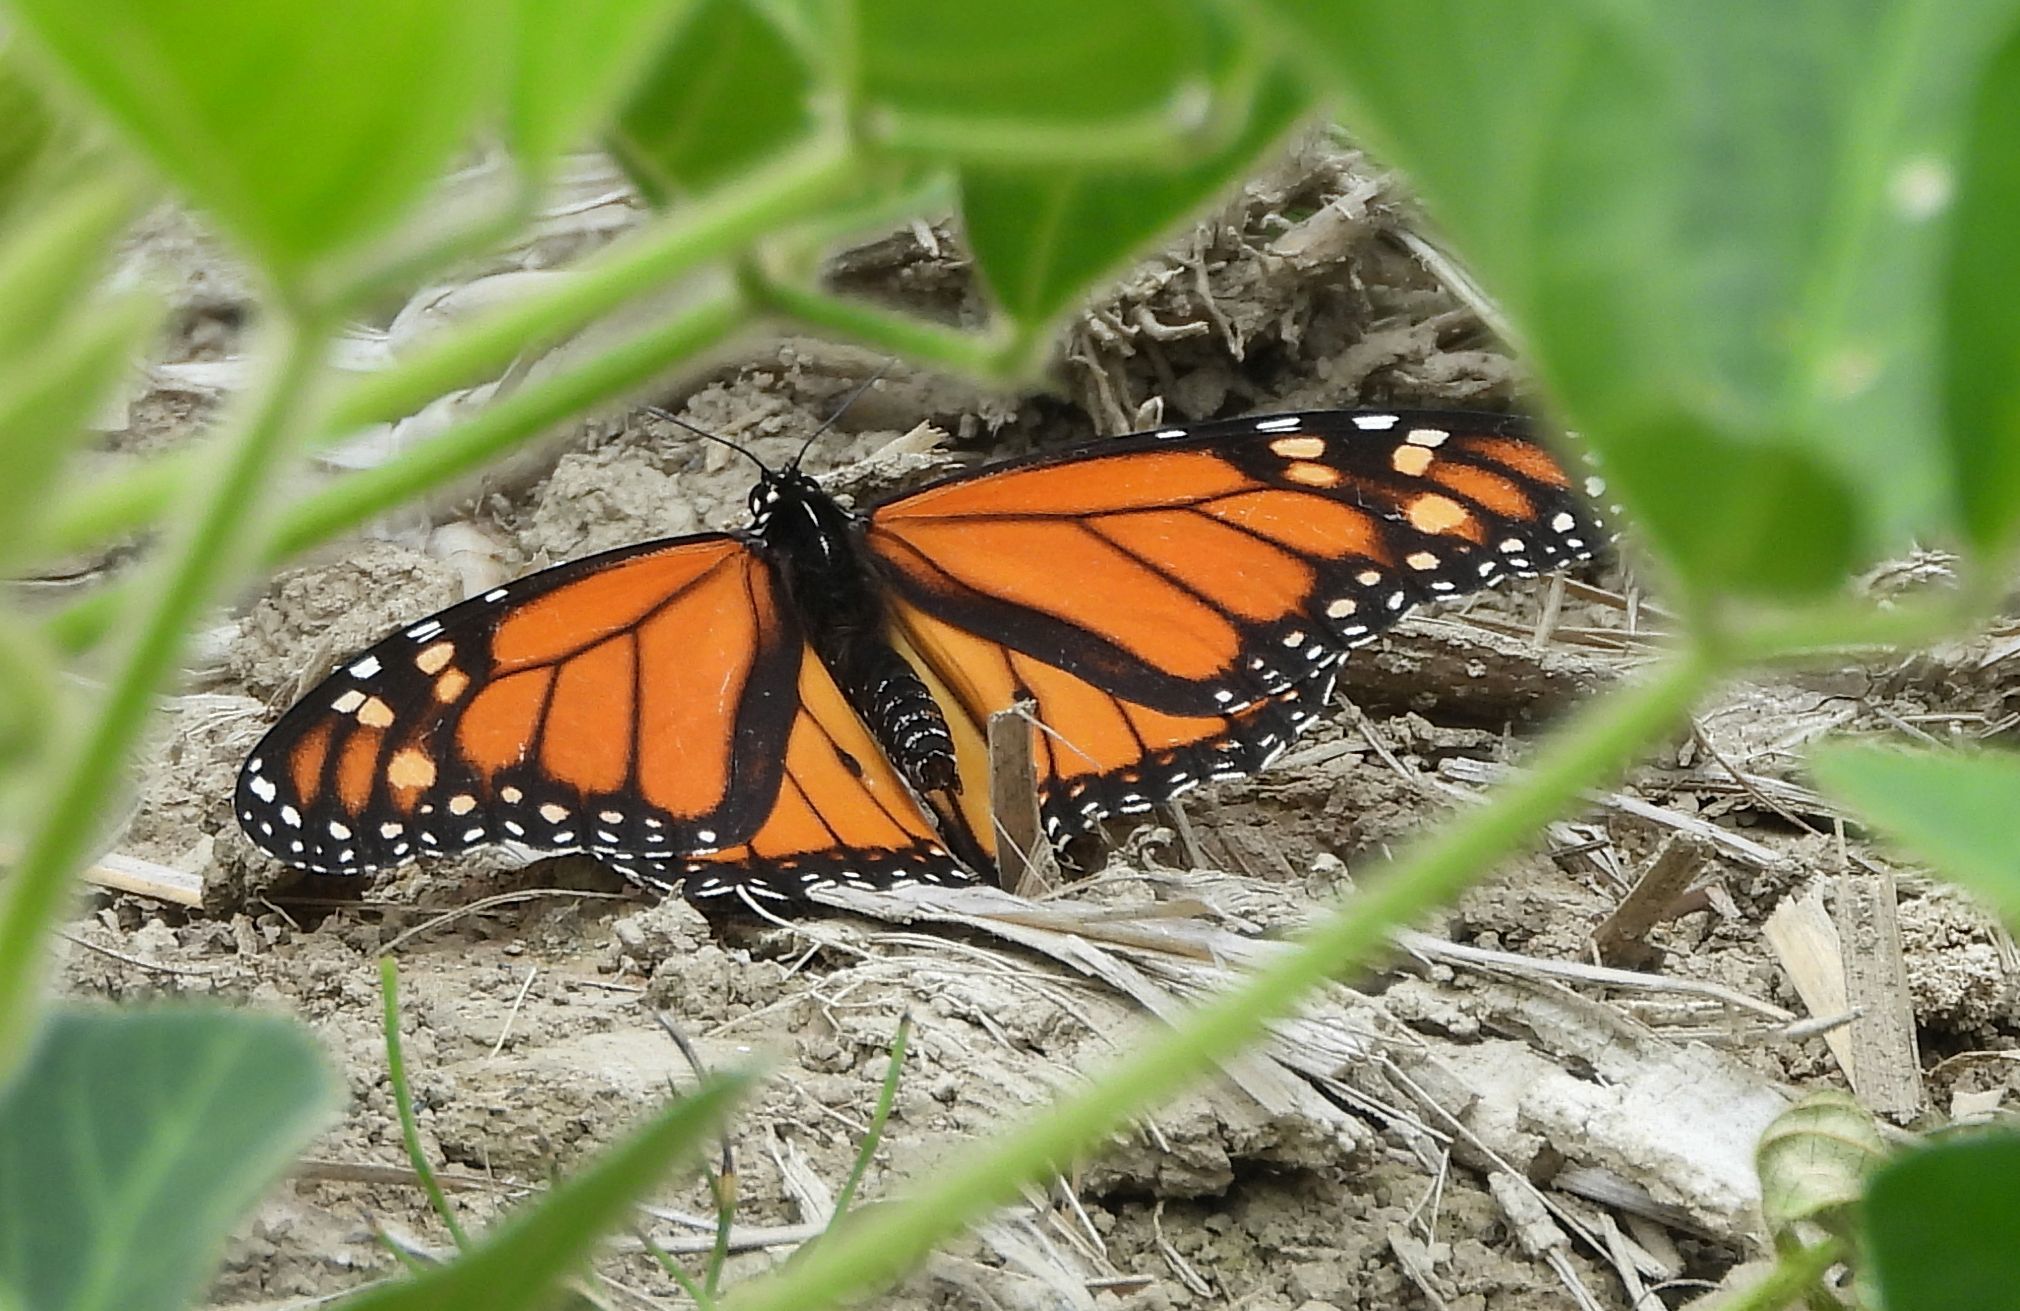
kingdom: Animalia
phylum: Arthropoda
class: Insecta
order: Lepidoptera
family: Nymphalidae
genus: Danaus
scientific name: Danaus plexippus
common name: Monarch
